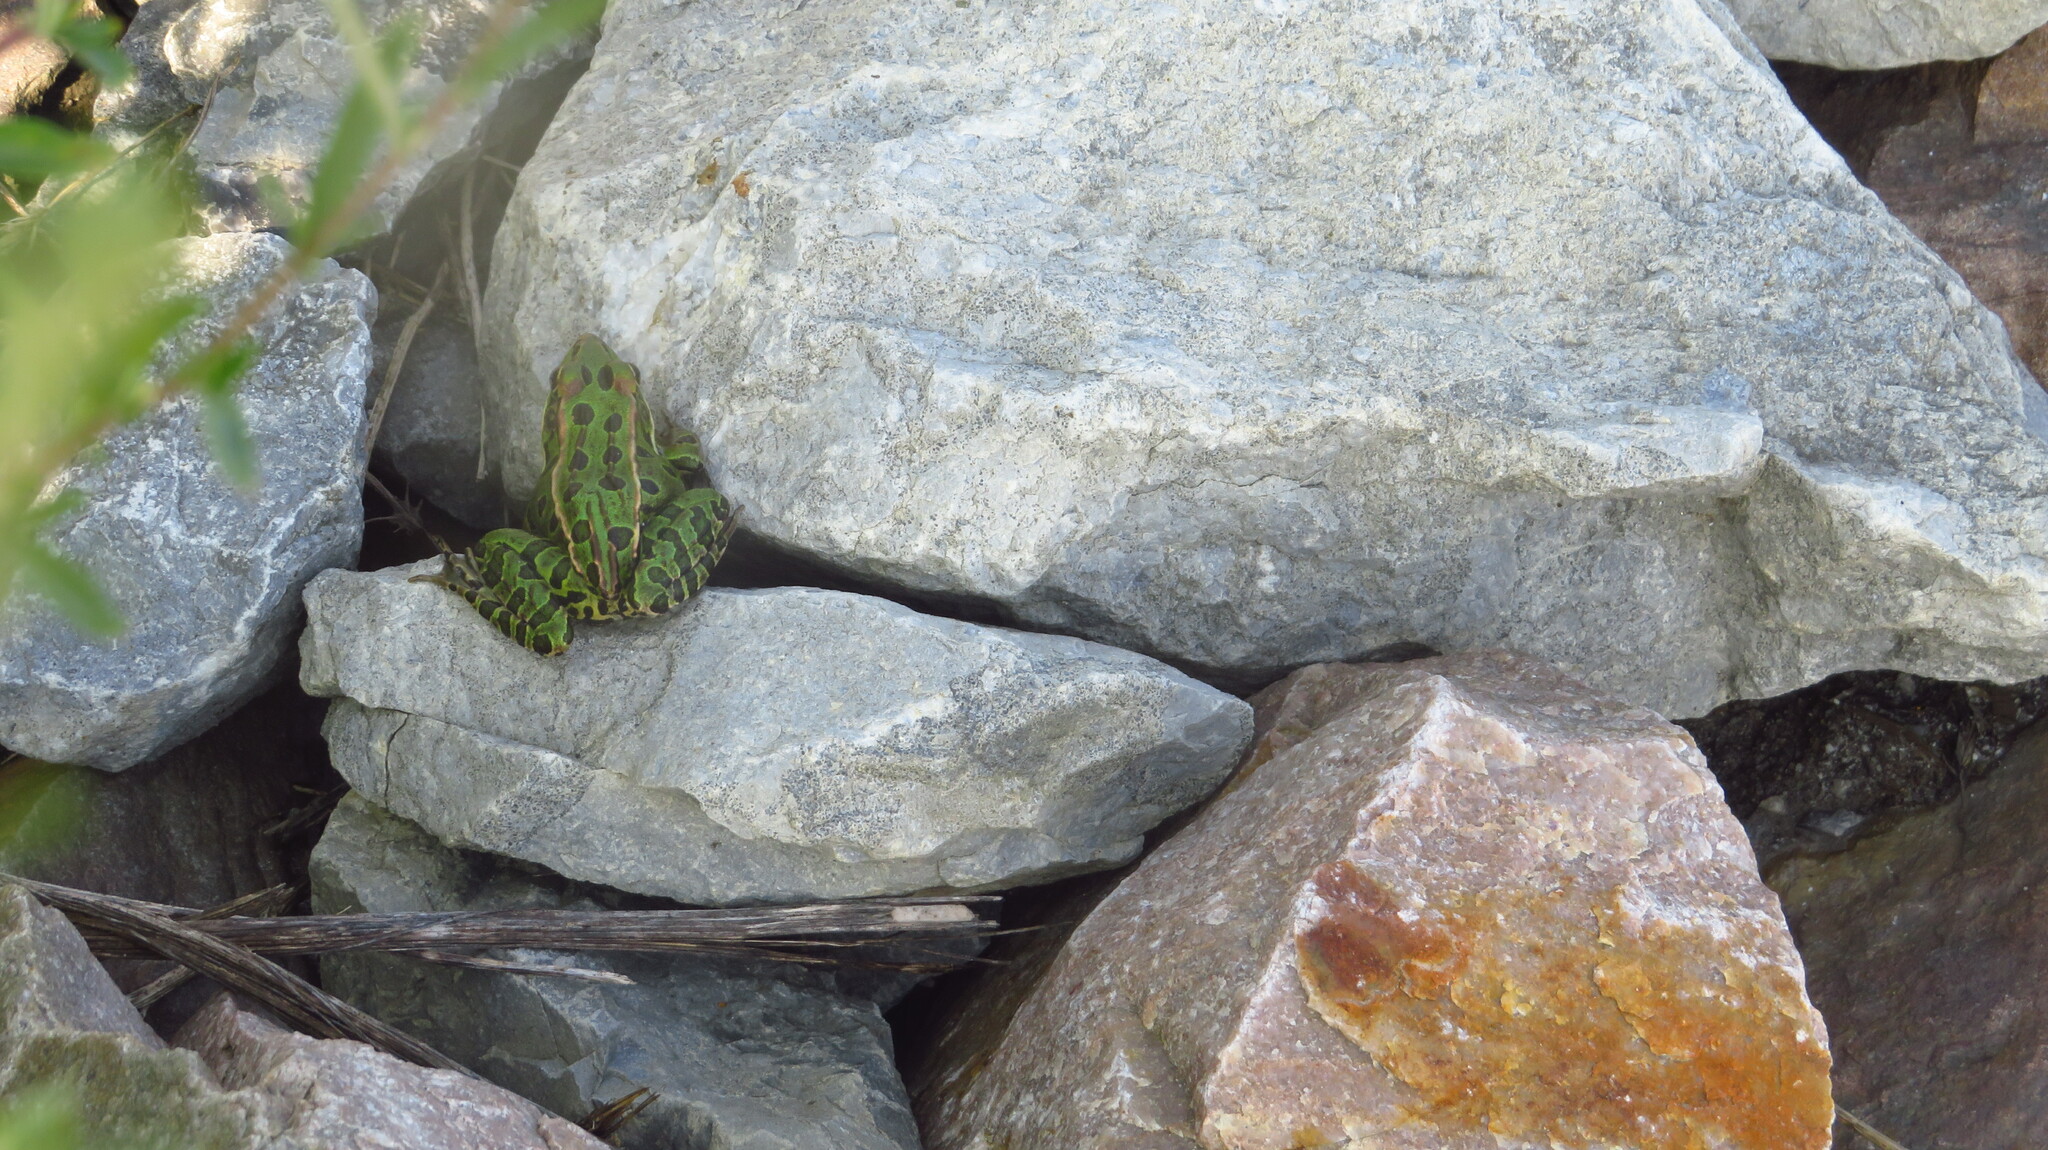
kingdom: Animalia
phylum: Chordata
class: Amphibia
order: Anura
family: Ranidae
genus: Lithobates
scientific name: Lithobates pipiens
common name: Northern leopard frog
